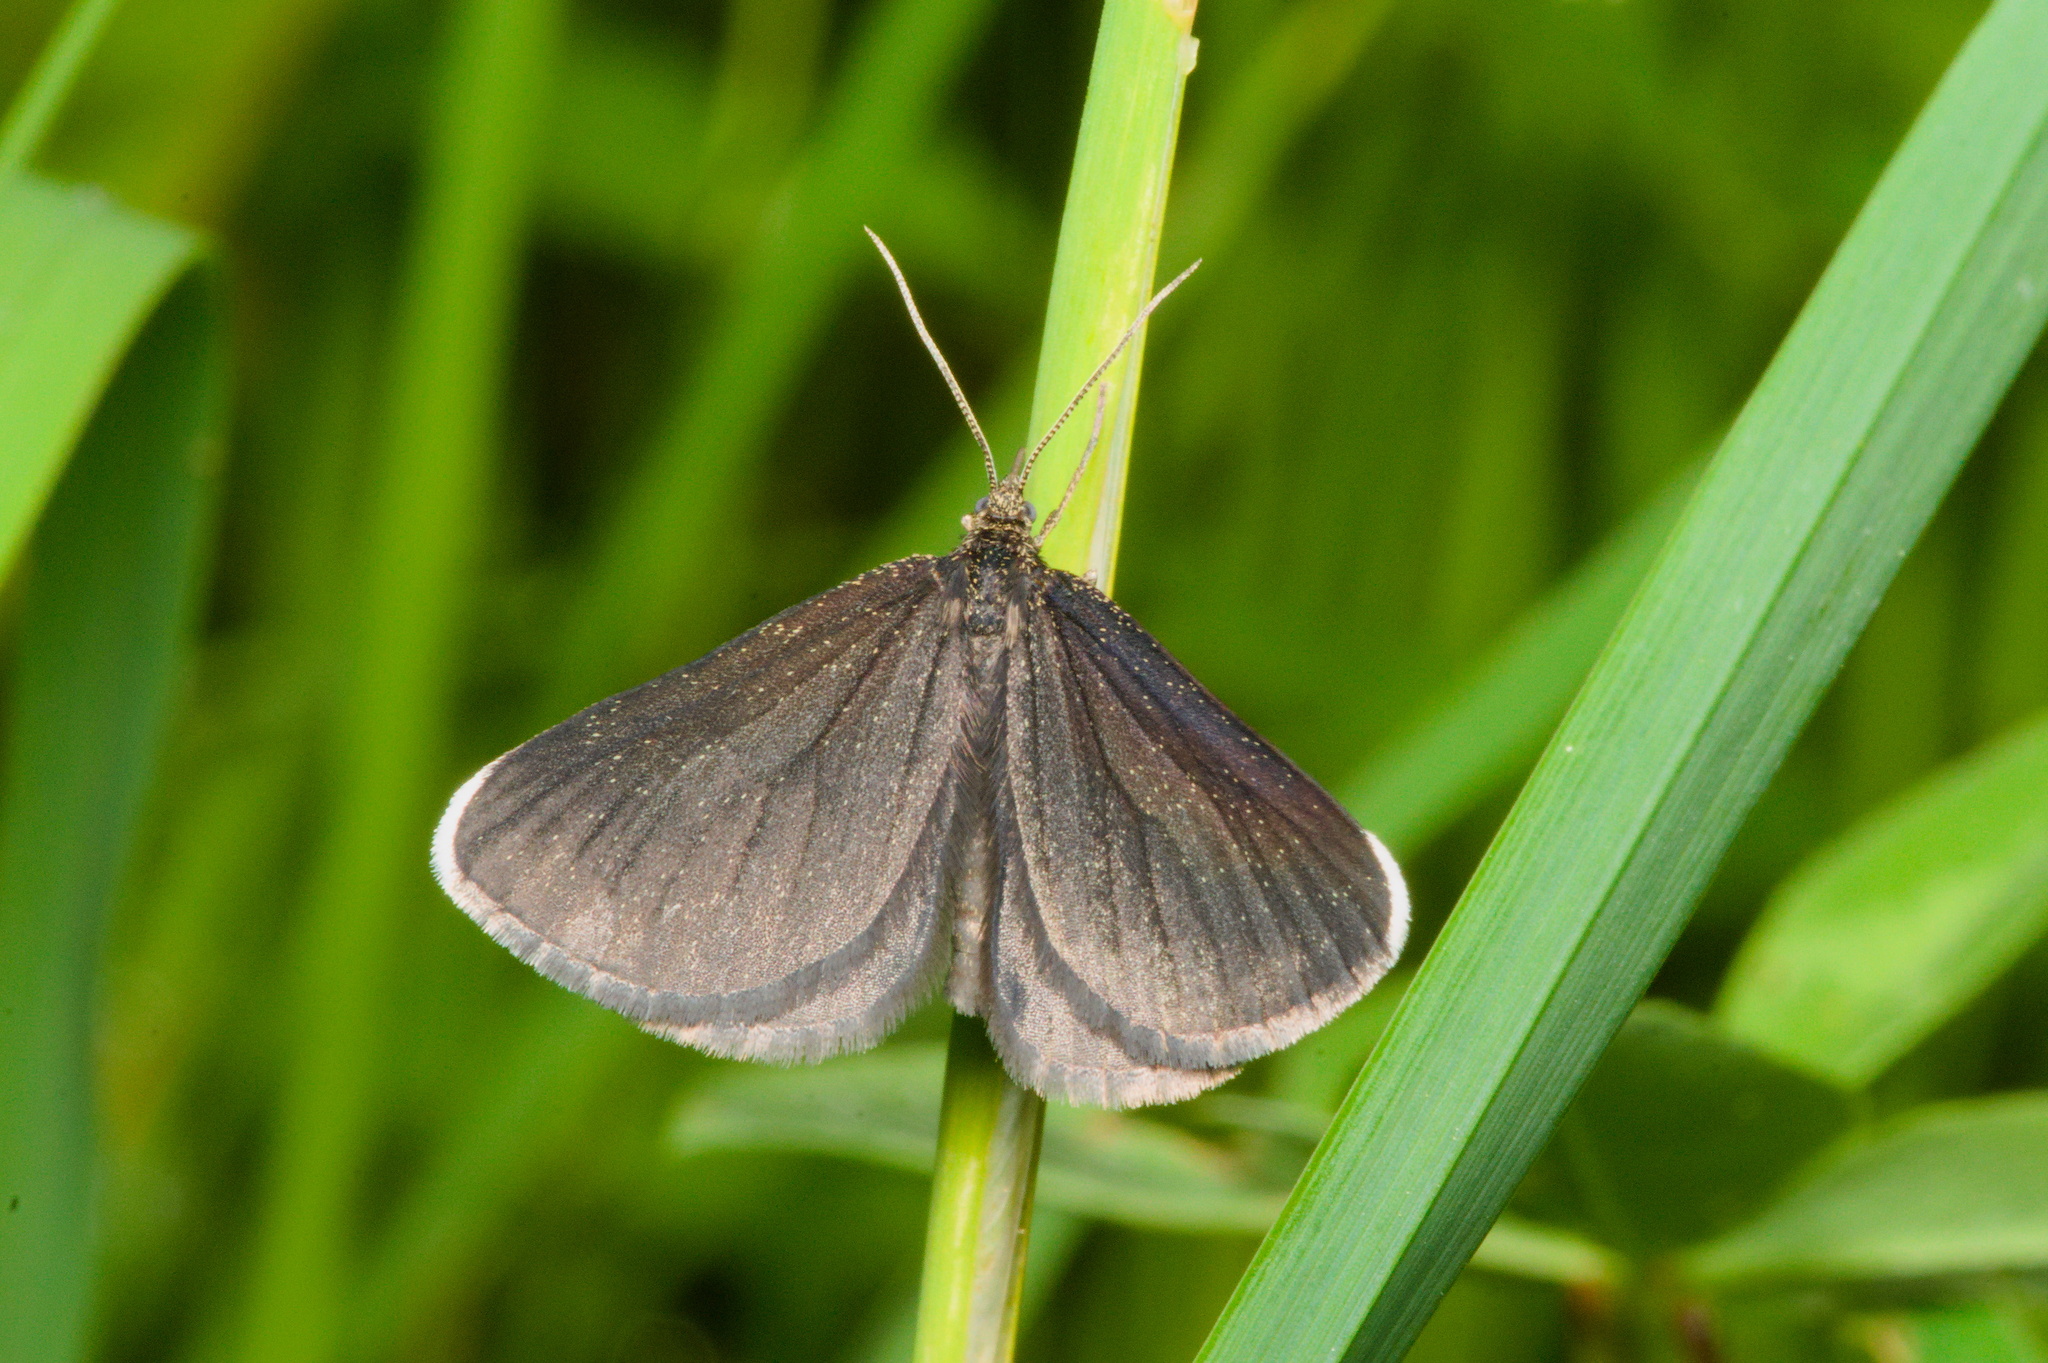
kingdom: Animalia
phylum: Arthropoda
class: Insecta
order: Lepidoptera
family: Geometridae
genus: Odezia
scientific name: Odezia atrata
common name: Chimney sweeper
